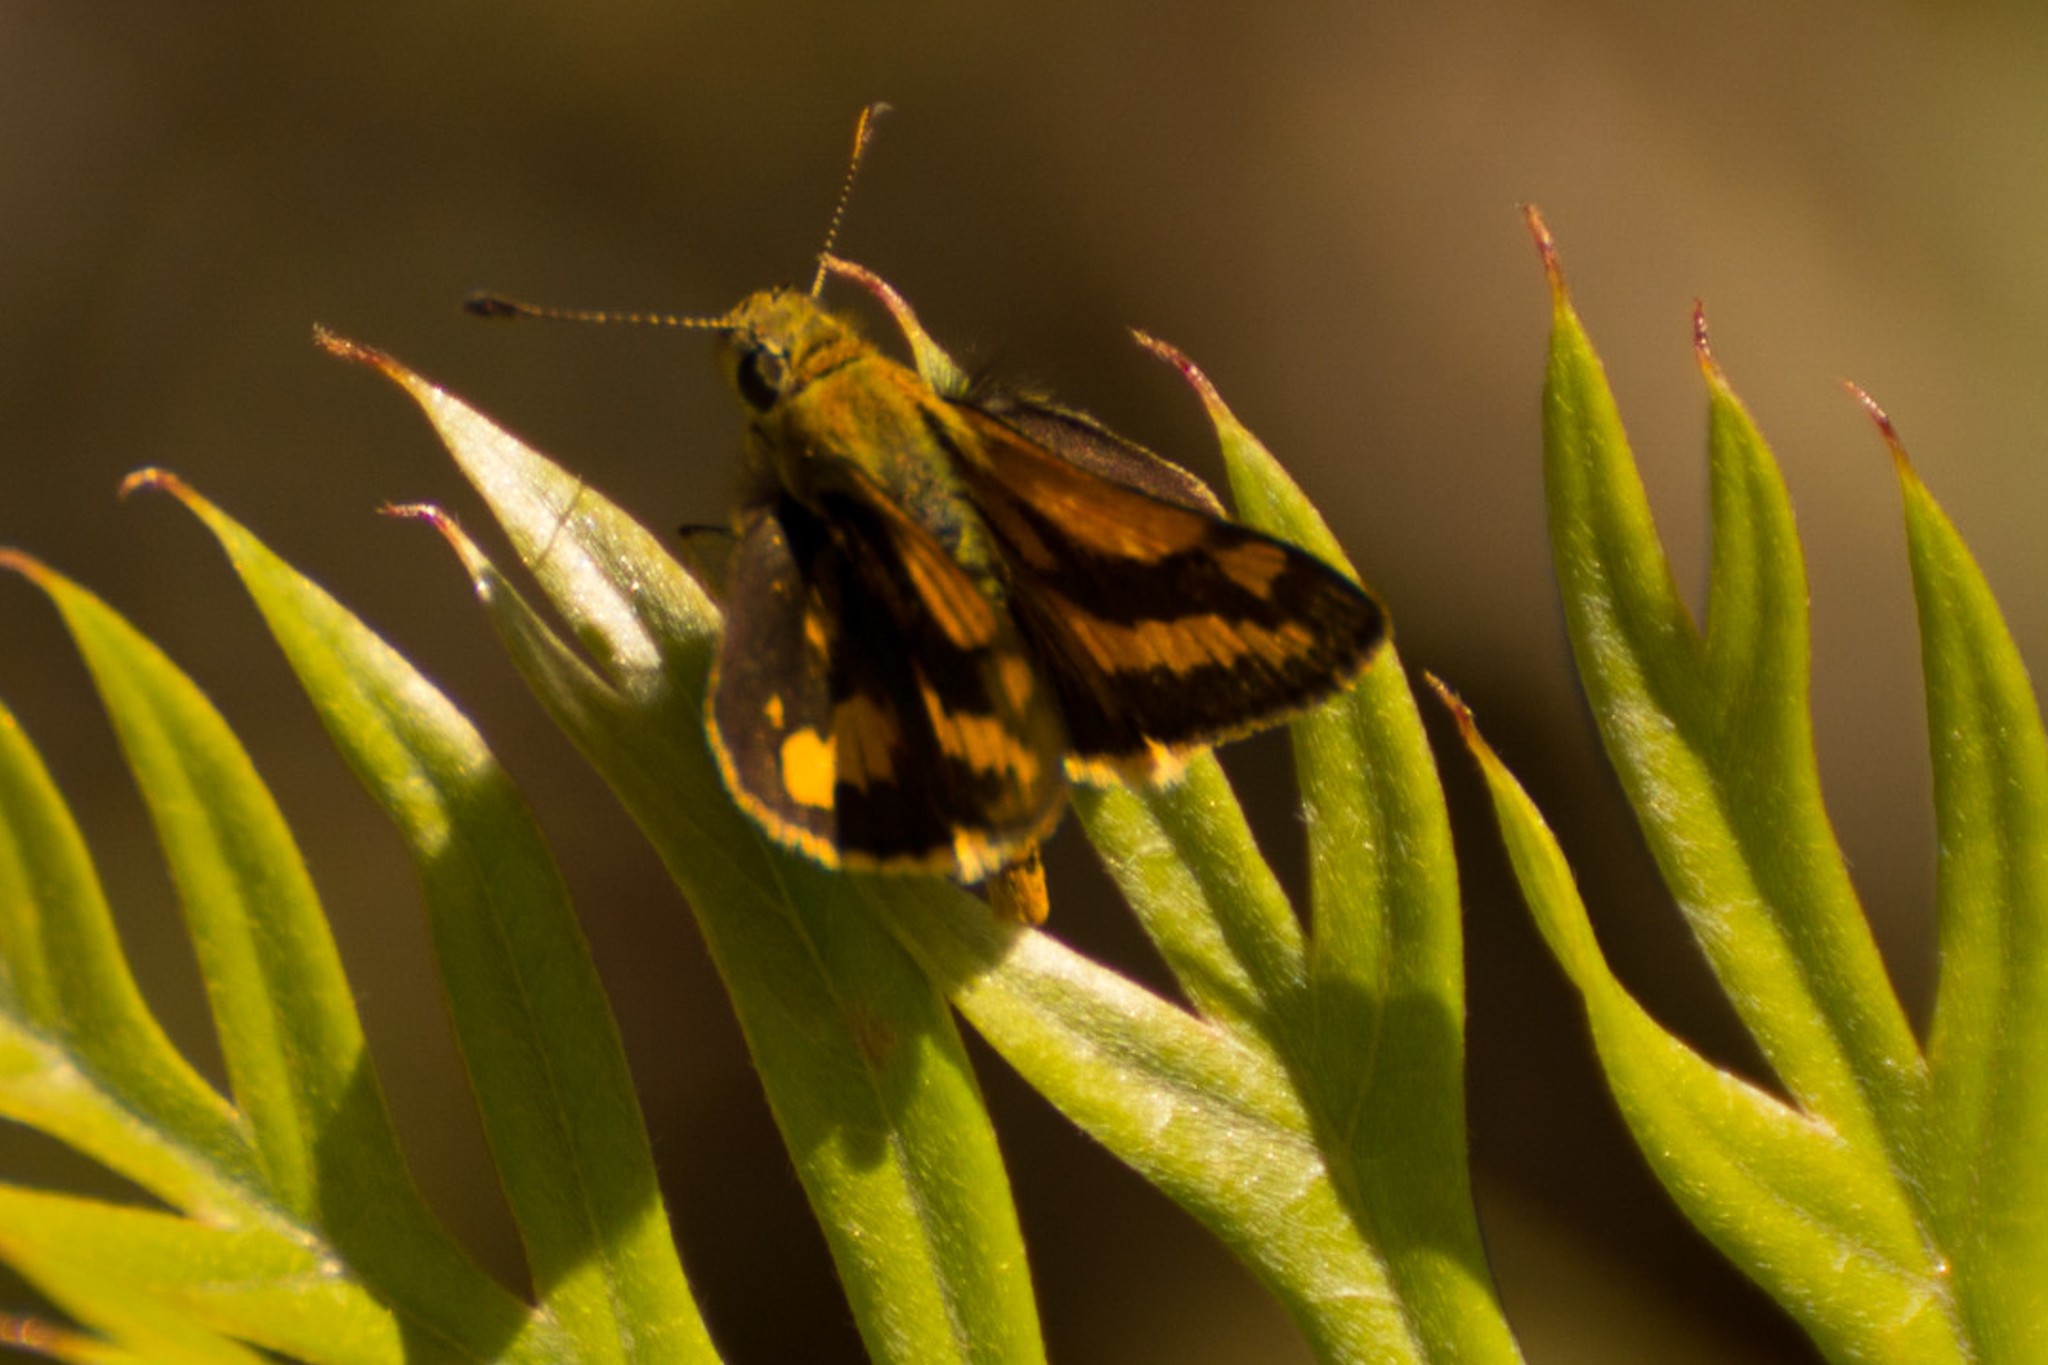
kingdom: Animalia
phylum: Arthropoda
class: Insecta
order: Lepidoptera
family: Hesperiidae
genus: Ocybadistes
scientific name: Ocybadistes walkeri
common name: Yellow-banded dart
